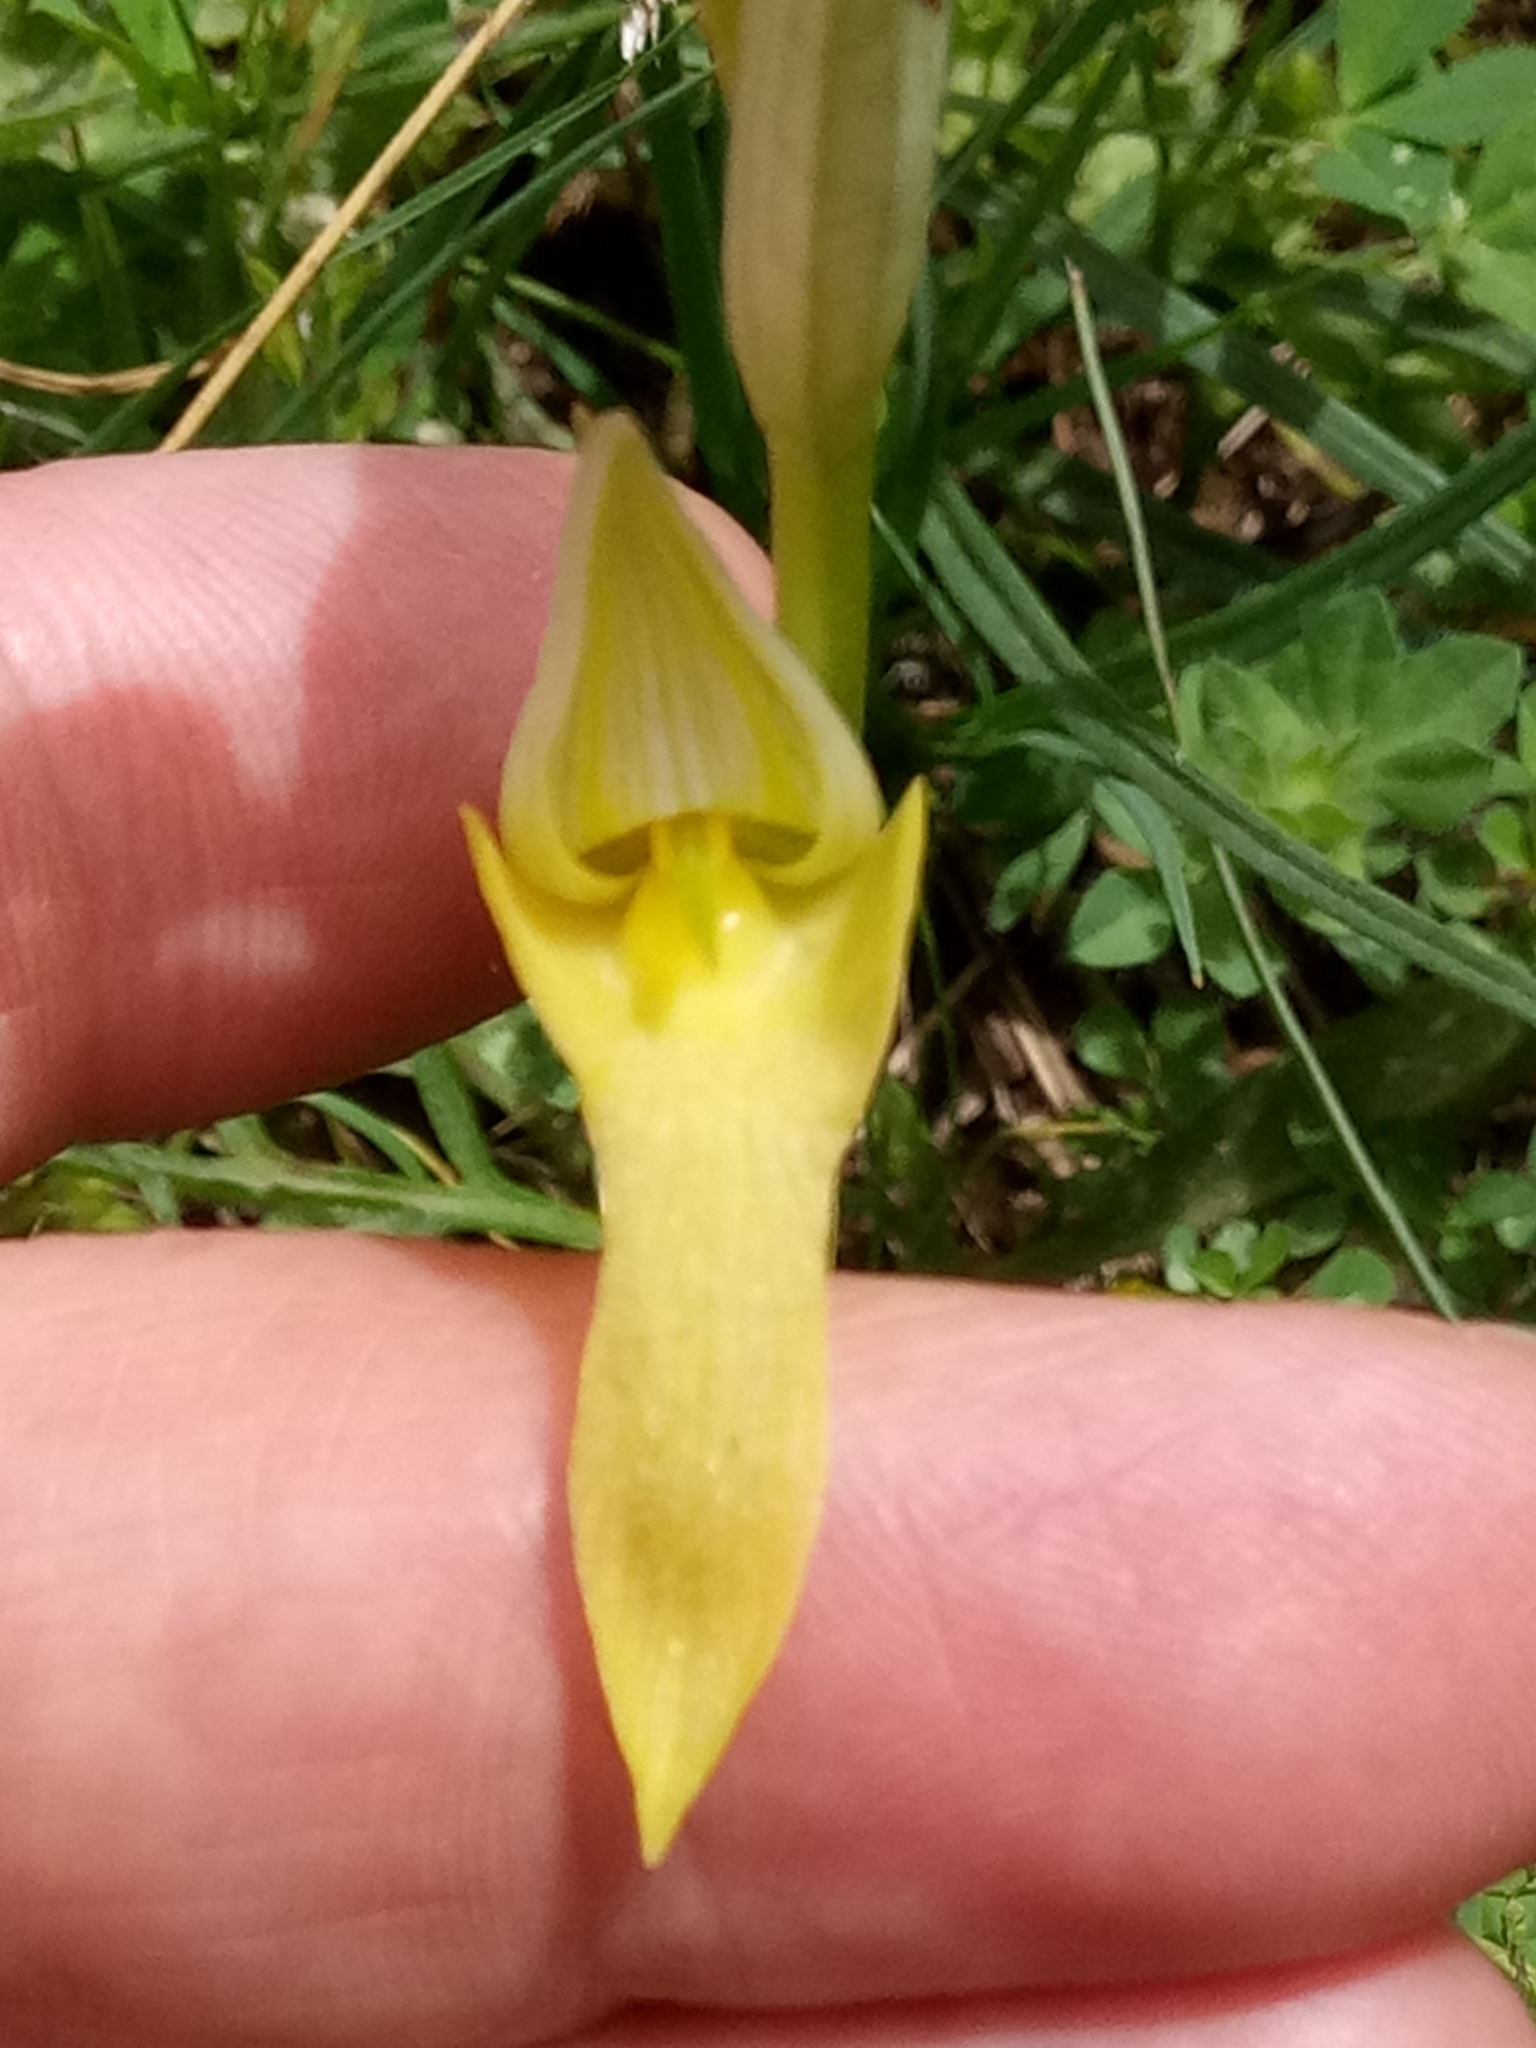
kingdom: Plantae
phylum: Tracheophyta
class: Liliopsida
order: Asparagales
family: Orchidaceae
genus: Serapias
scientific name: Serapias lingua
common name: Tongue-orchid
